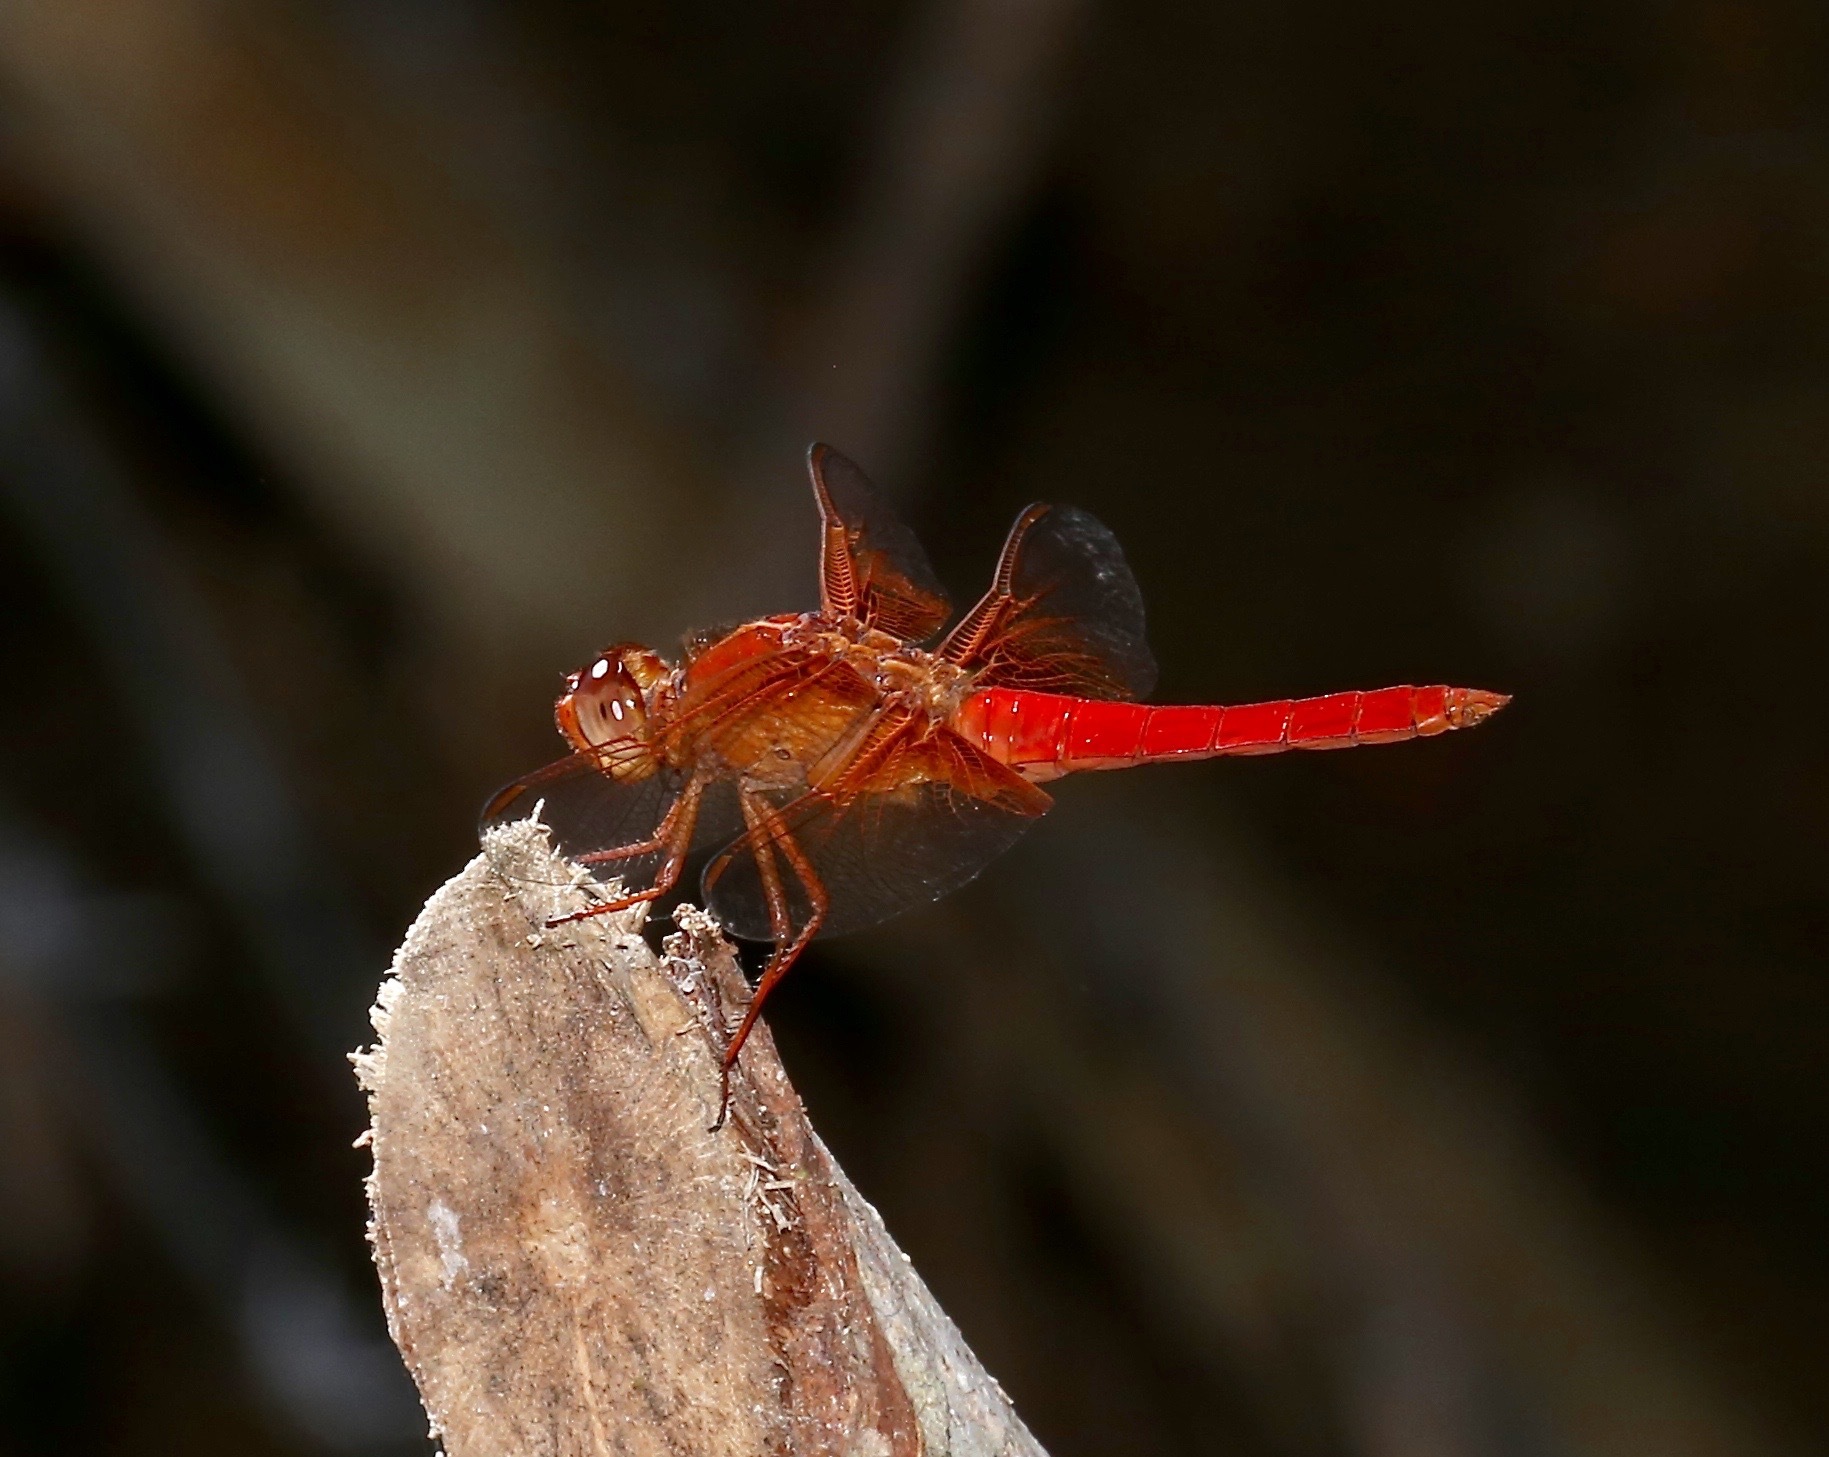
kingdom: Animalia
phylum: Arthropoda
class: Insecta
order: Odonata
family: Libellulidae
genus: Libellula
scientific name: Libellula croceipennis
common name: Neon skimmer
